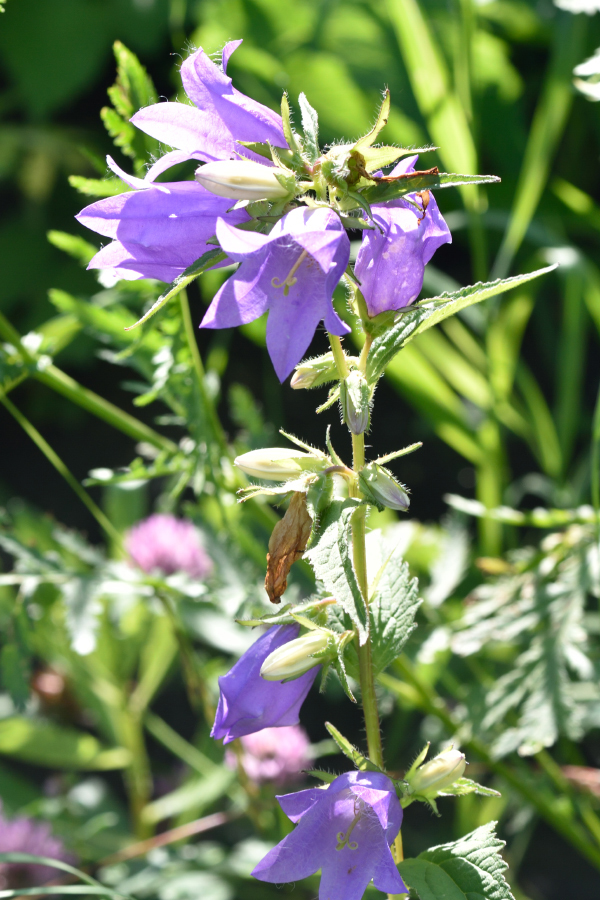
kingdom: Plantae
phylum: Tracheophyta
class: Magnoliopsida
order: Asterales
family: Campanulaceae
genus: Campanula
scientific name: Campanula trachelium
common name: Nettle-leaved bellflower
